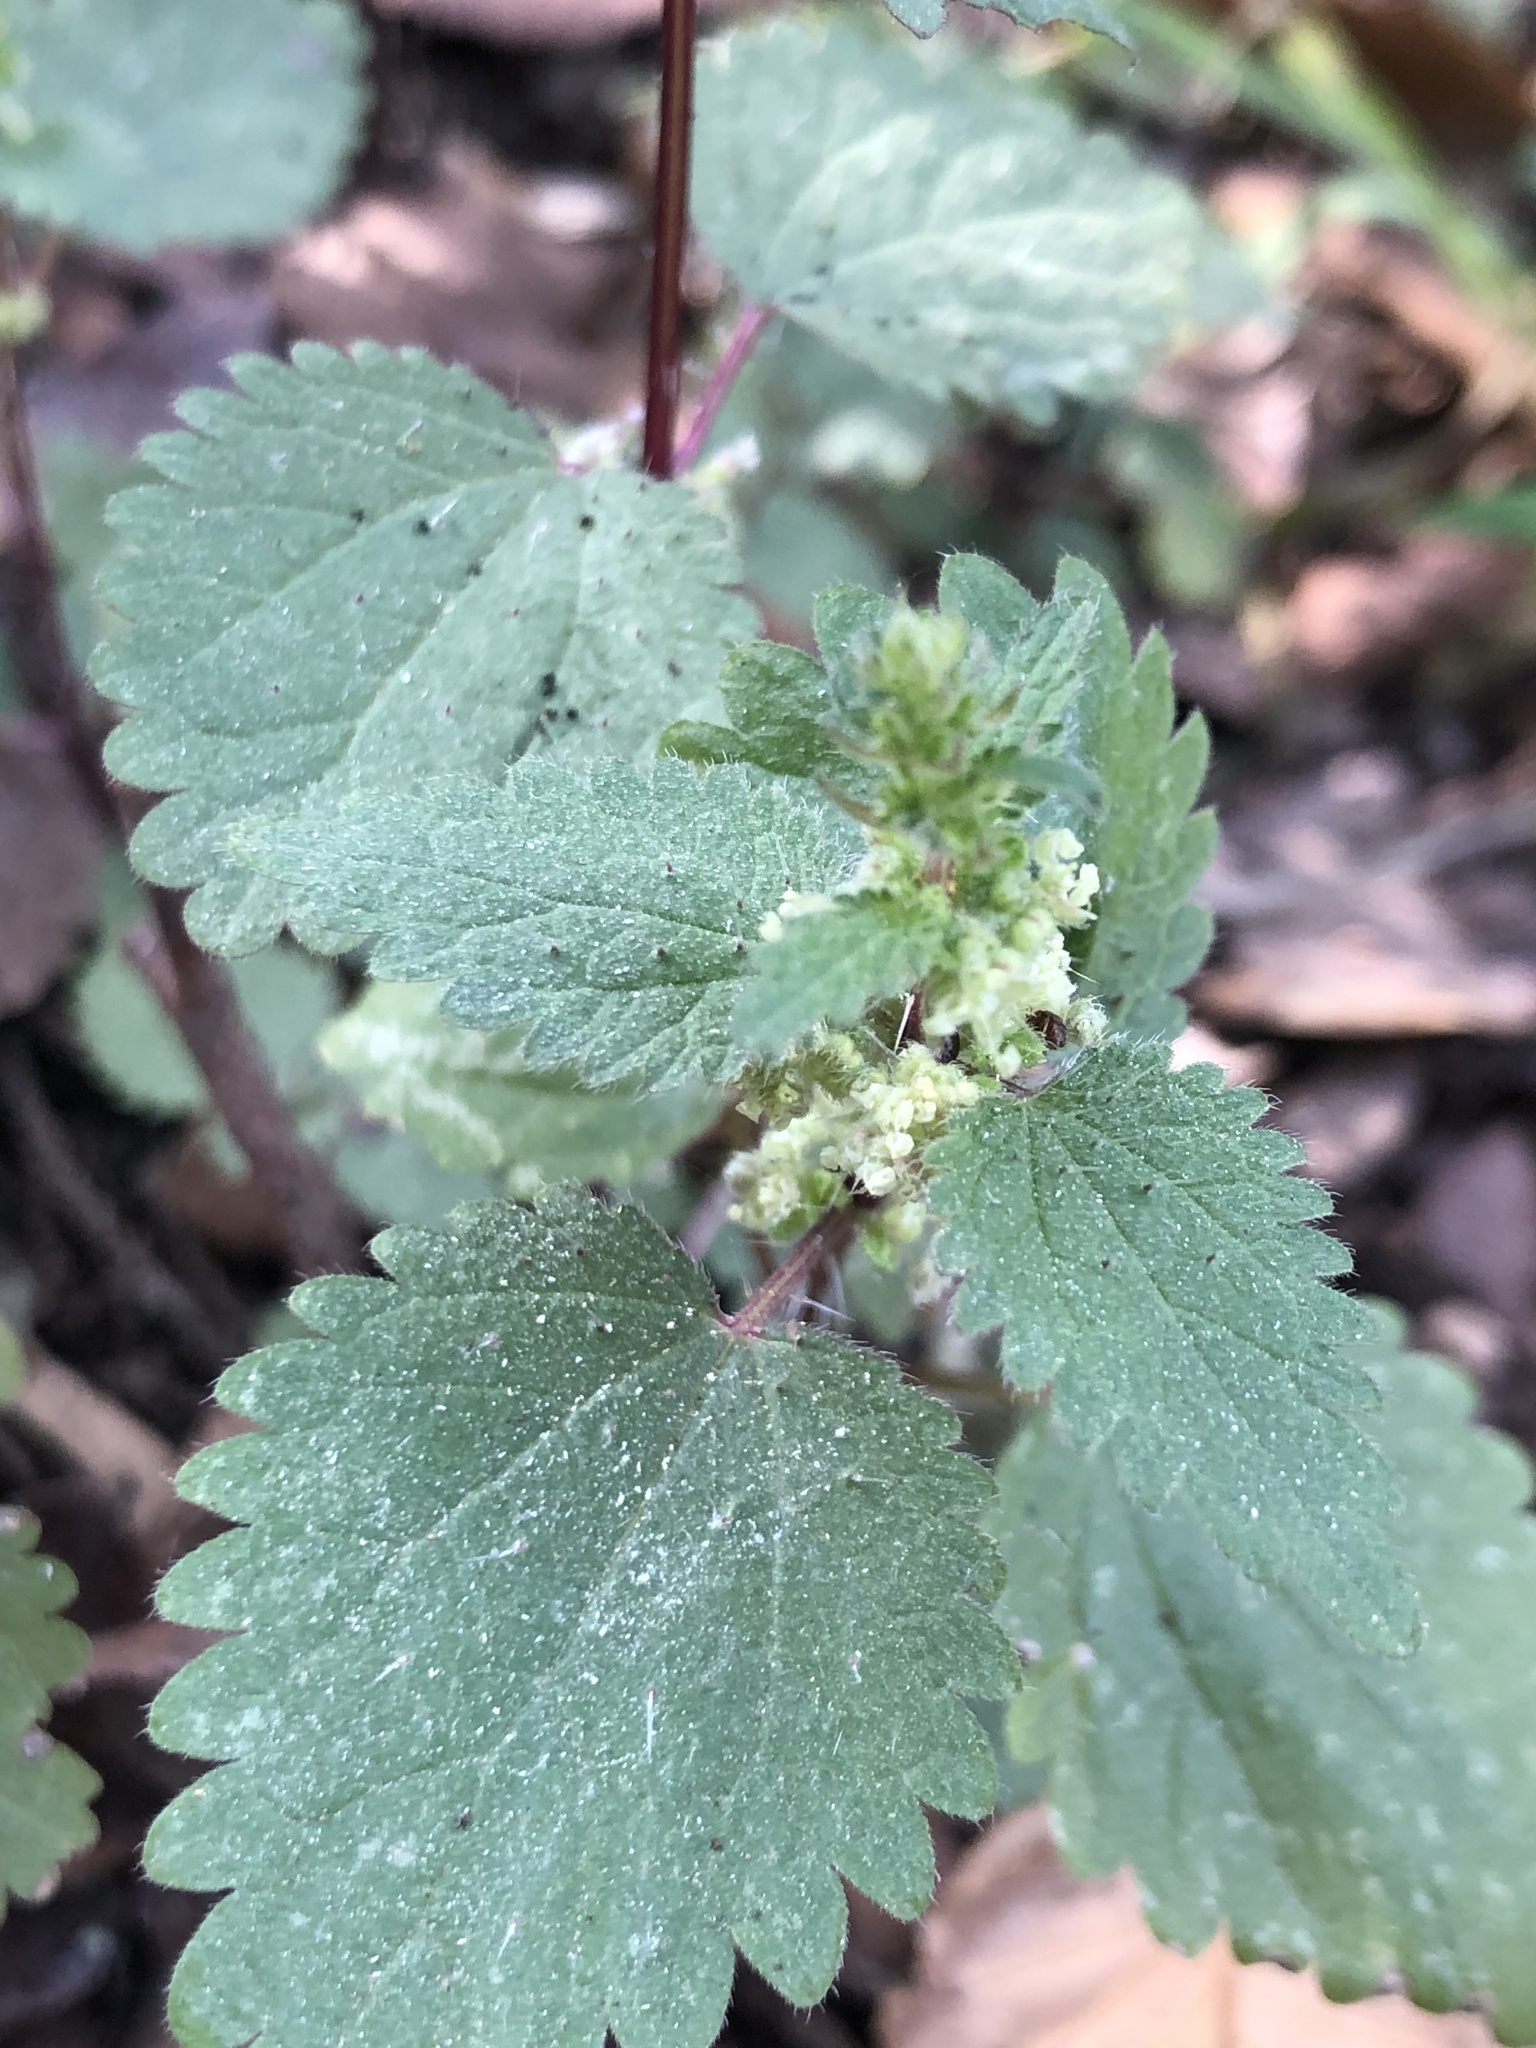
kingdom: Plantae
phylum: Tracheophyta
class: Magnoliopsida
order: Rosales
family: Urticaceae
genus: Urtica
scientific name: Urtica chamaedryoides
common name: Heart-leaf nettle
